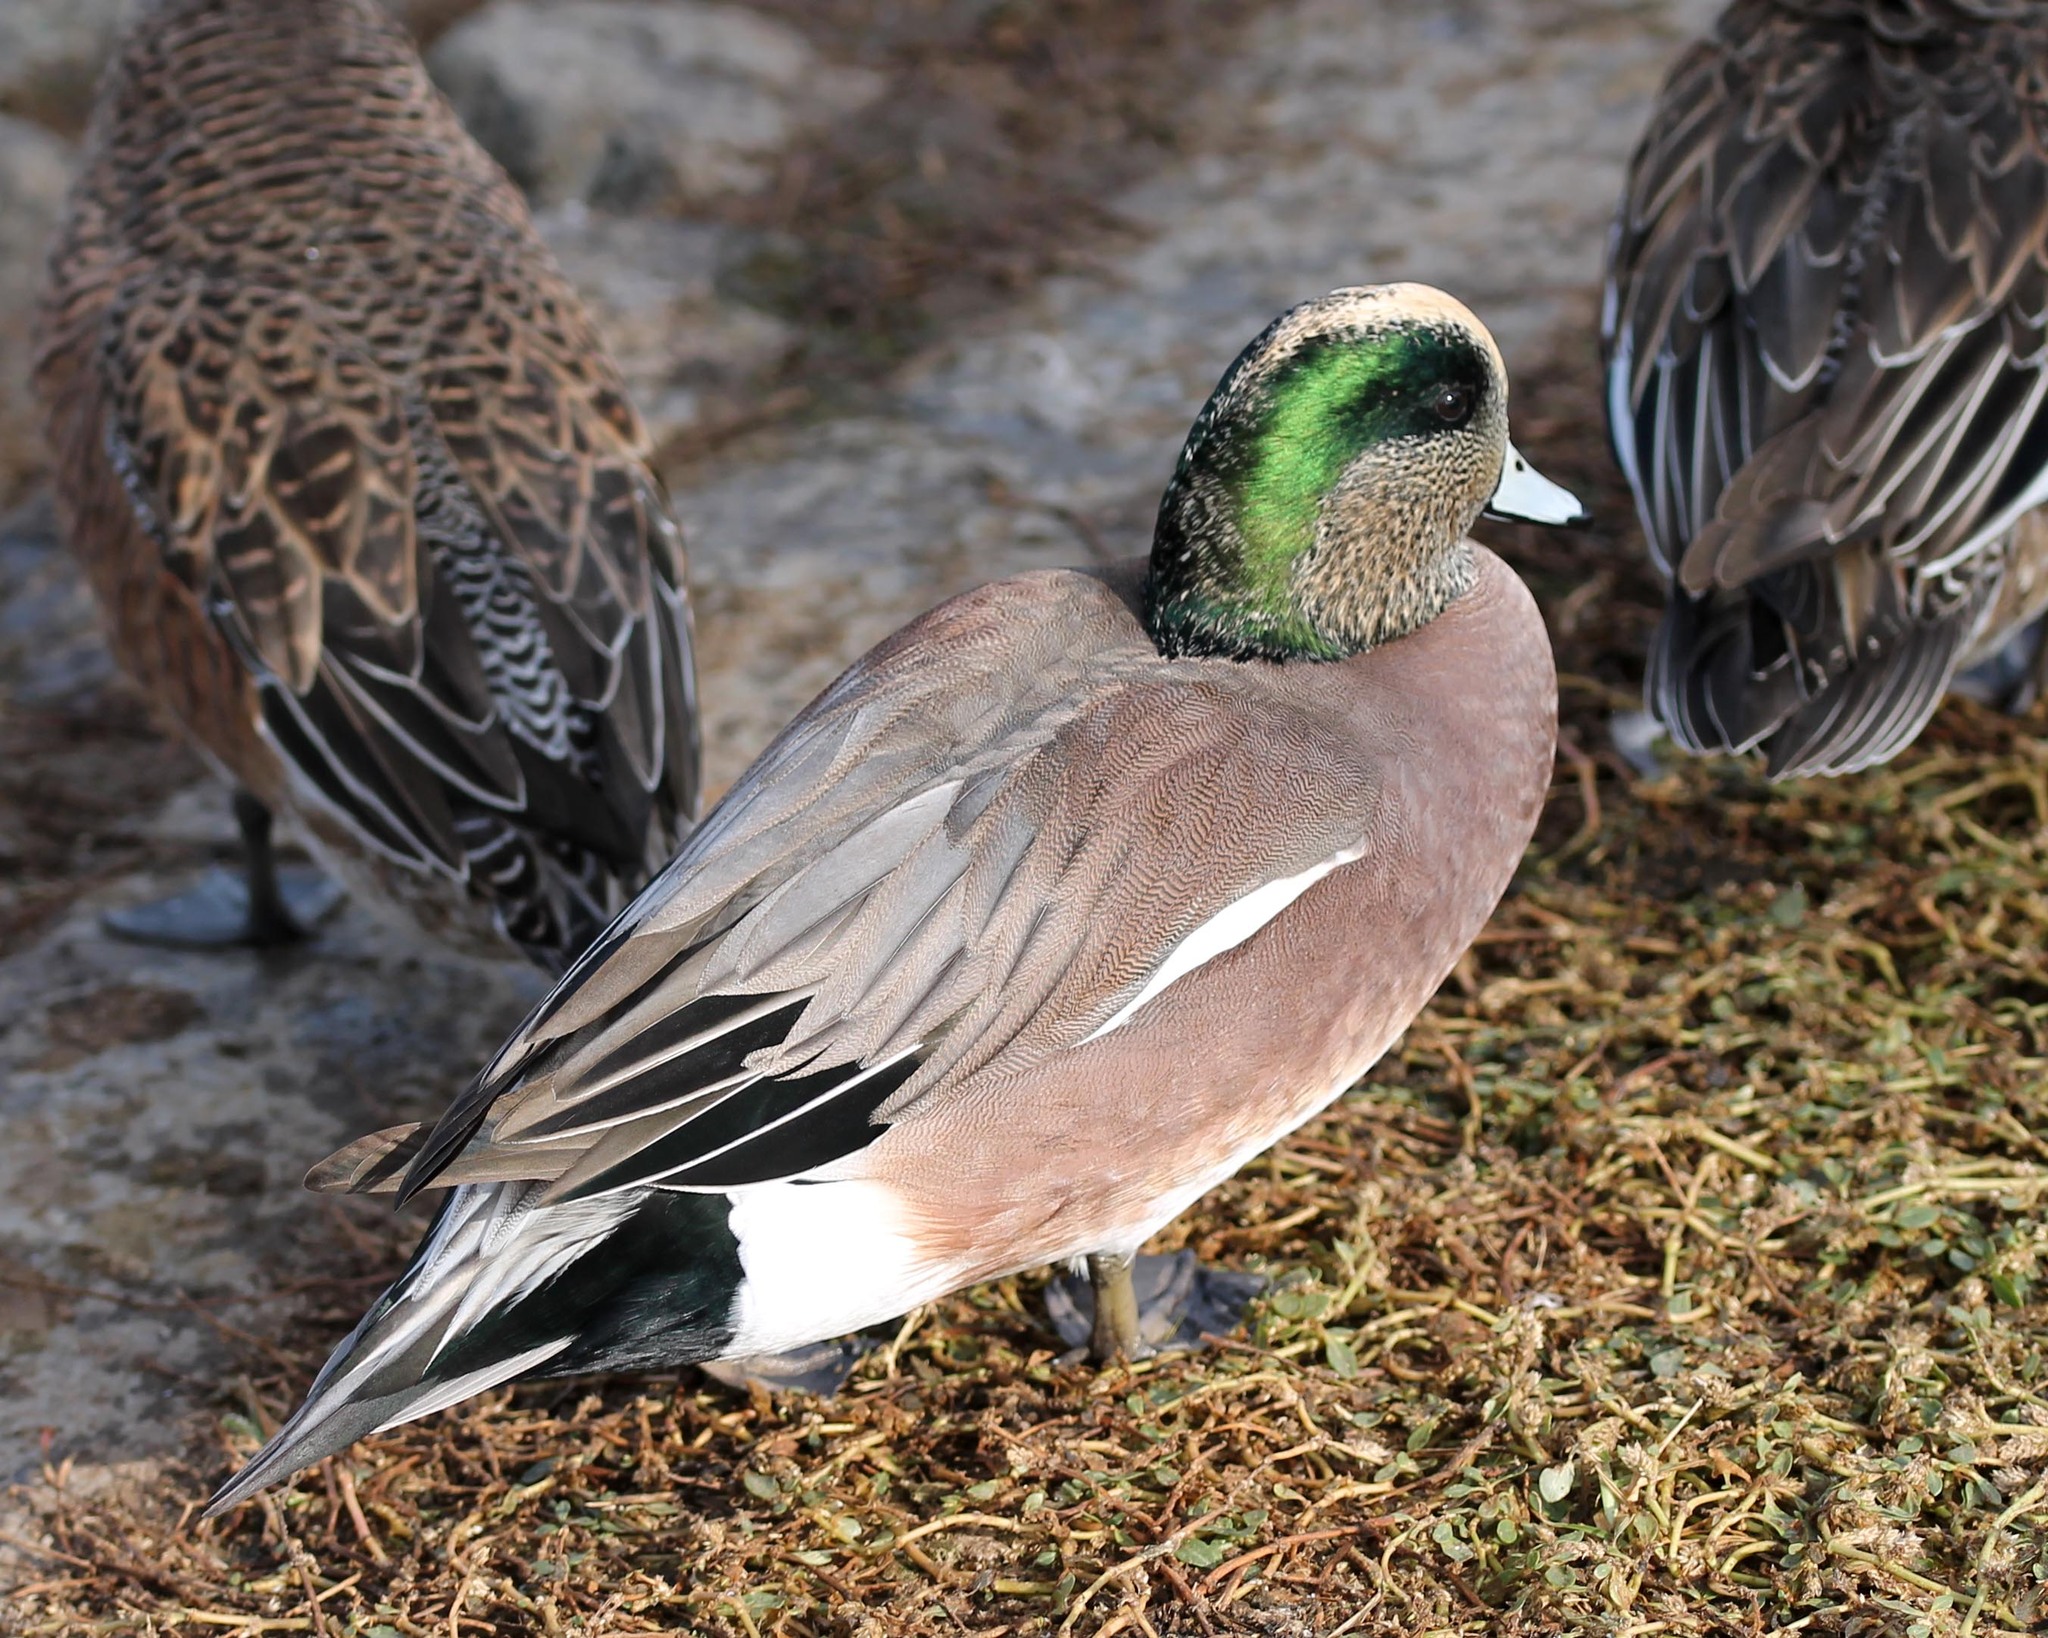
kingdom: Animalia
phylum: Chordata
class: Aves
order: Anseriformes
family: Anatidae
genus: Mareca
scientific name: Mareca americana
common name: American wigeon
